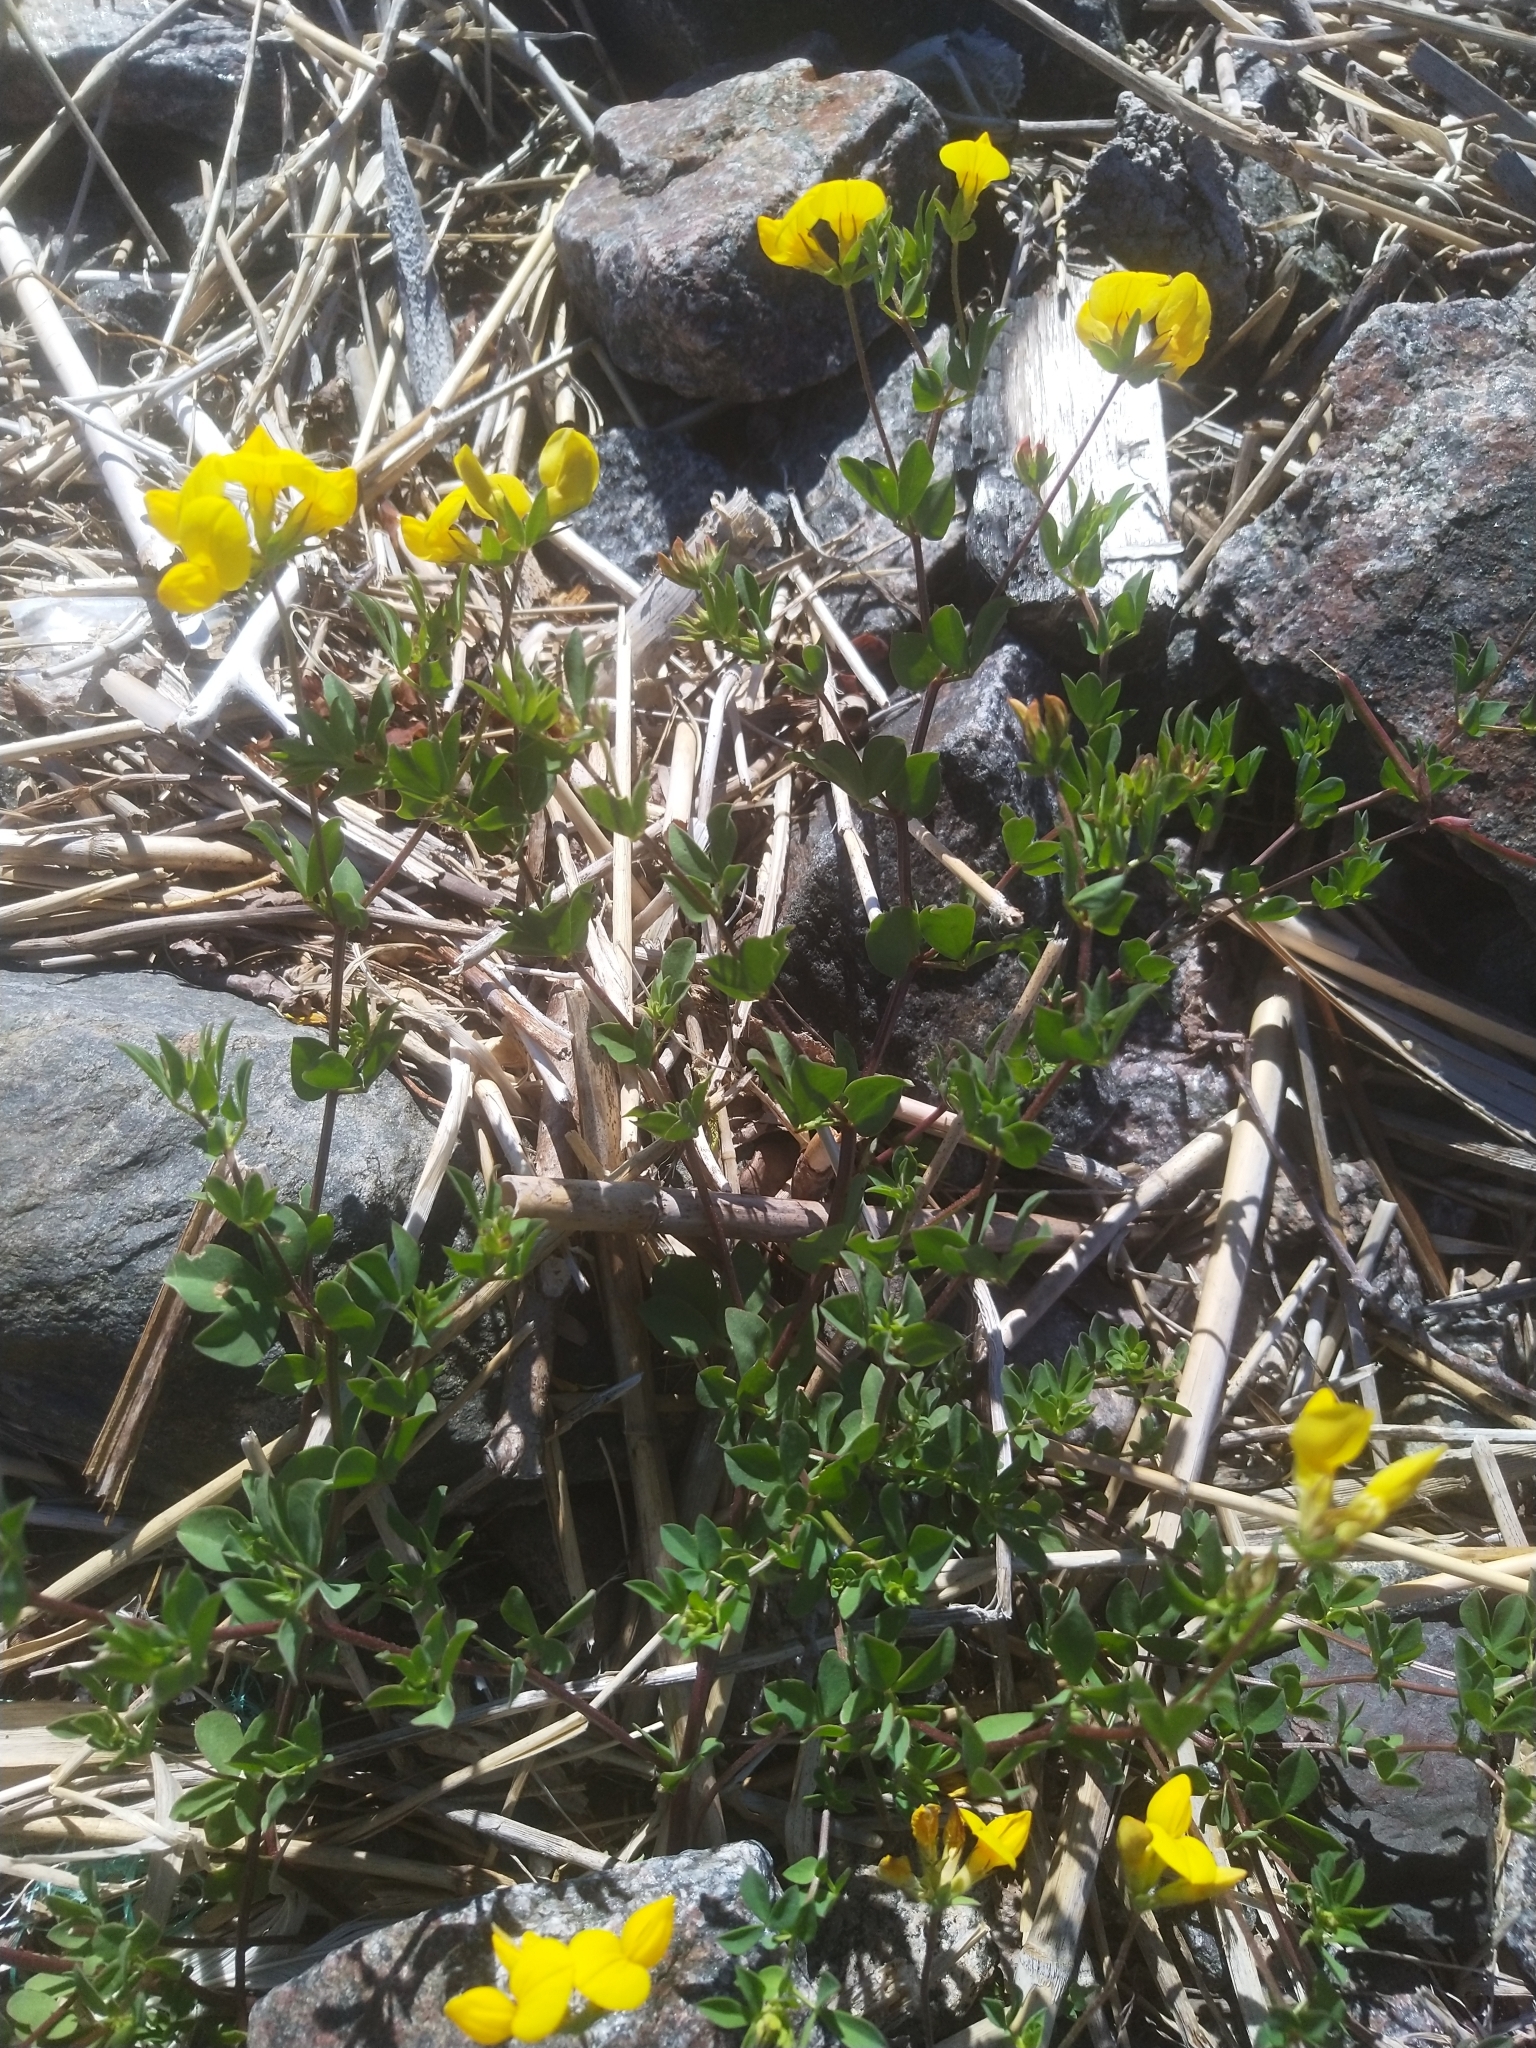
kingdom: Plantae
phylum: Tracheophyta
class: Magnoliopsida
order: Fabales
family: Fabaceae
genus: Lotus
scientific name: Lotus corniculatus
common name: Common bird's-foot-trefoil
